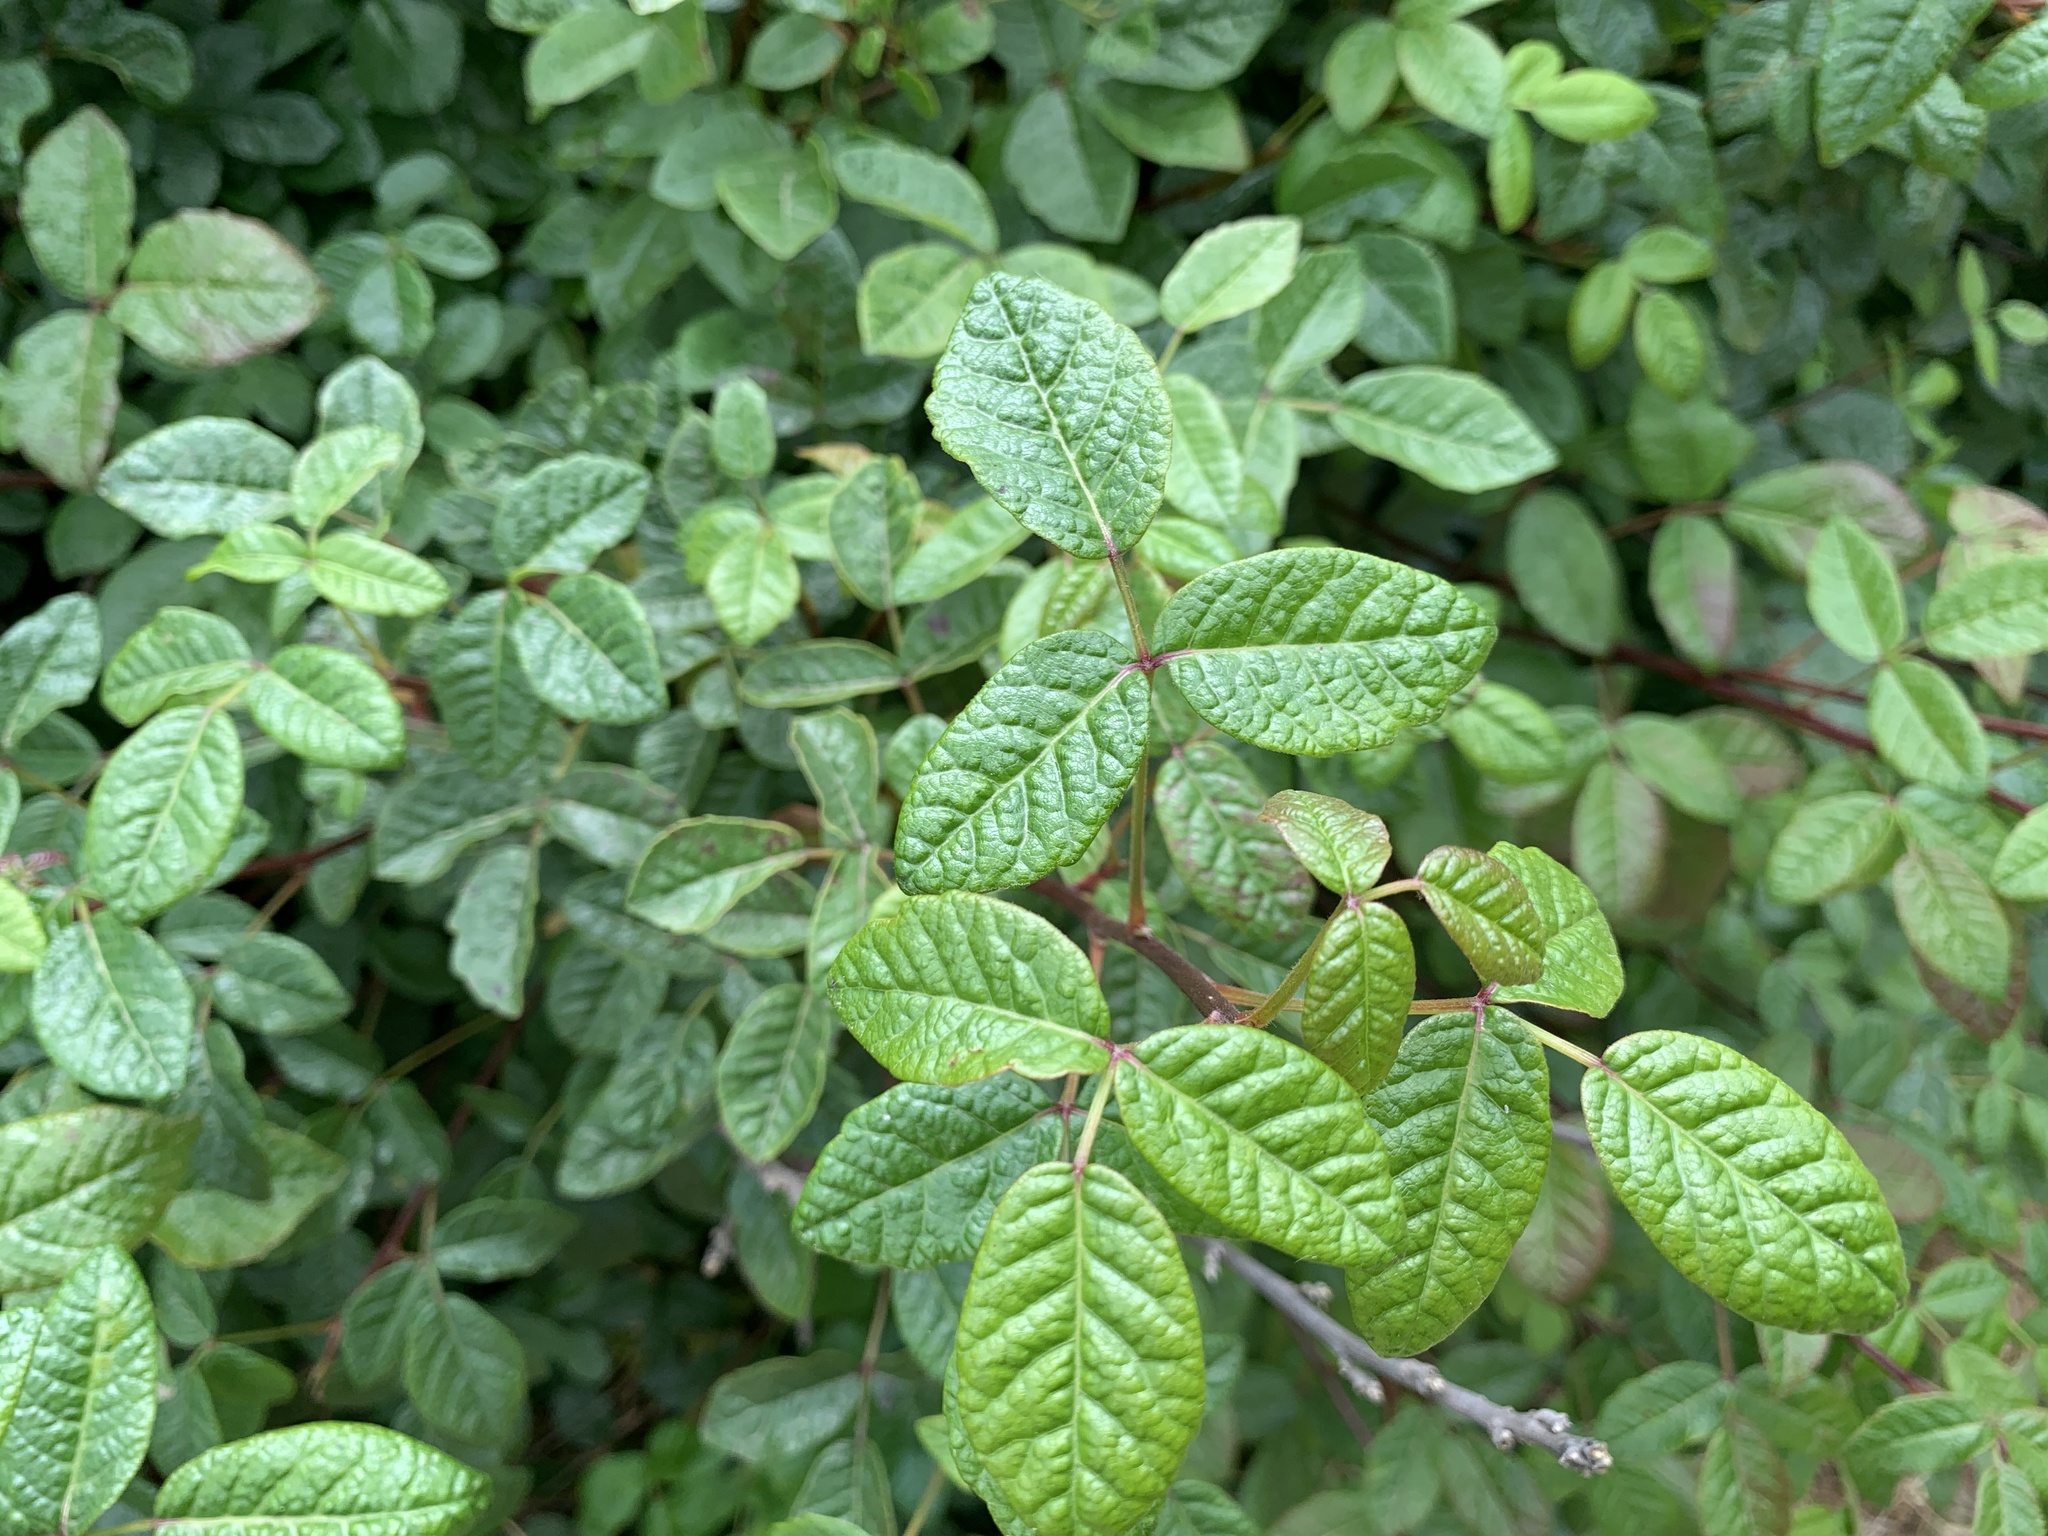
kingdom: Plantae
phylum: Tracheophyta
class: Magnoliopsida
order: Sapindales
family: Anacardiaceae
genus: Toxicodendron
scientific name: Toxicodendron diversilobum
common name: Pacific poison-oak
